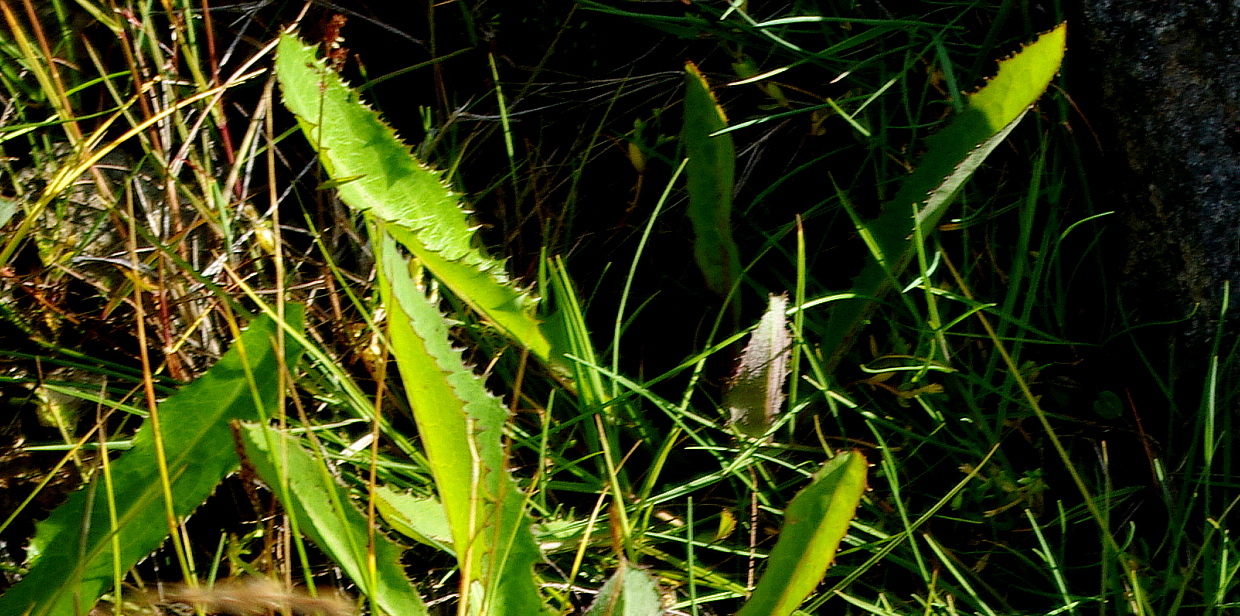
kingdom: Plantae
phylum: Tracheophyta
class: Magnoliopsida
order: Asterales
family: Asteraceae
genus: Sonchus
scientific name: Sonchus arvensis
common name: Perennial sow-thistle
